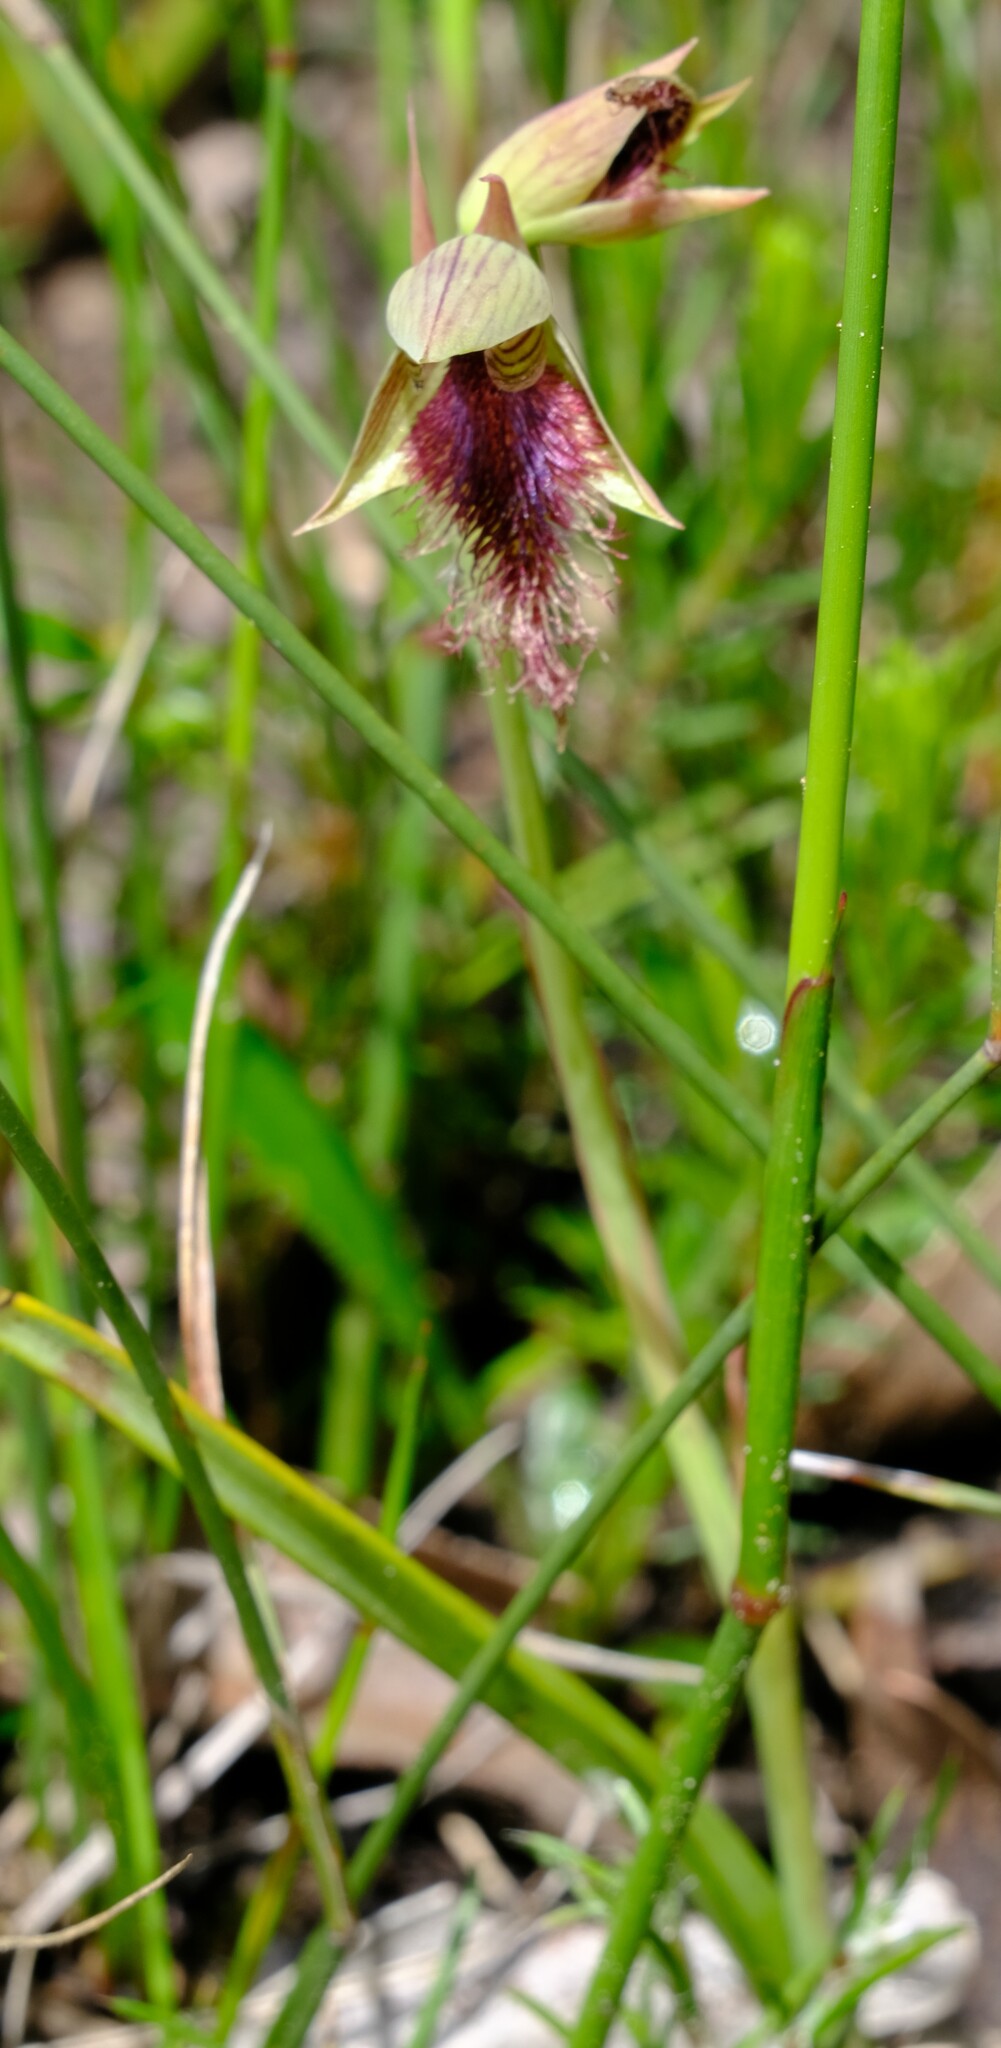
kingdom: Plantae
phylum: Tracheophyta
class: Liliopsida
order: Asparagales
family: Orchidaceae
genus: Calochilus
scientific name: Calochilus robertsonii
